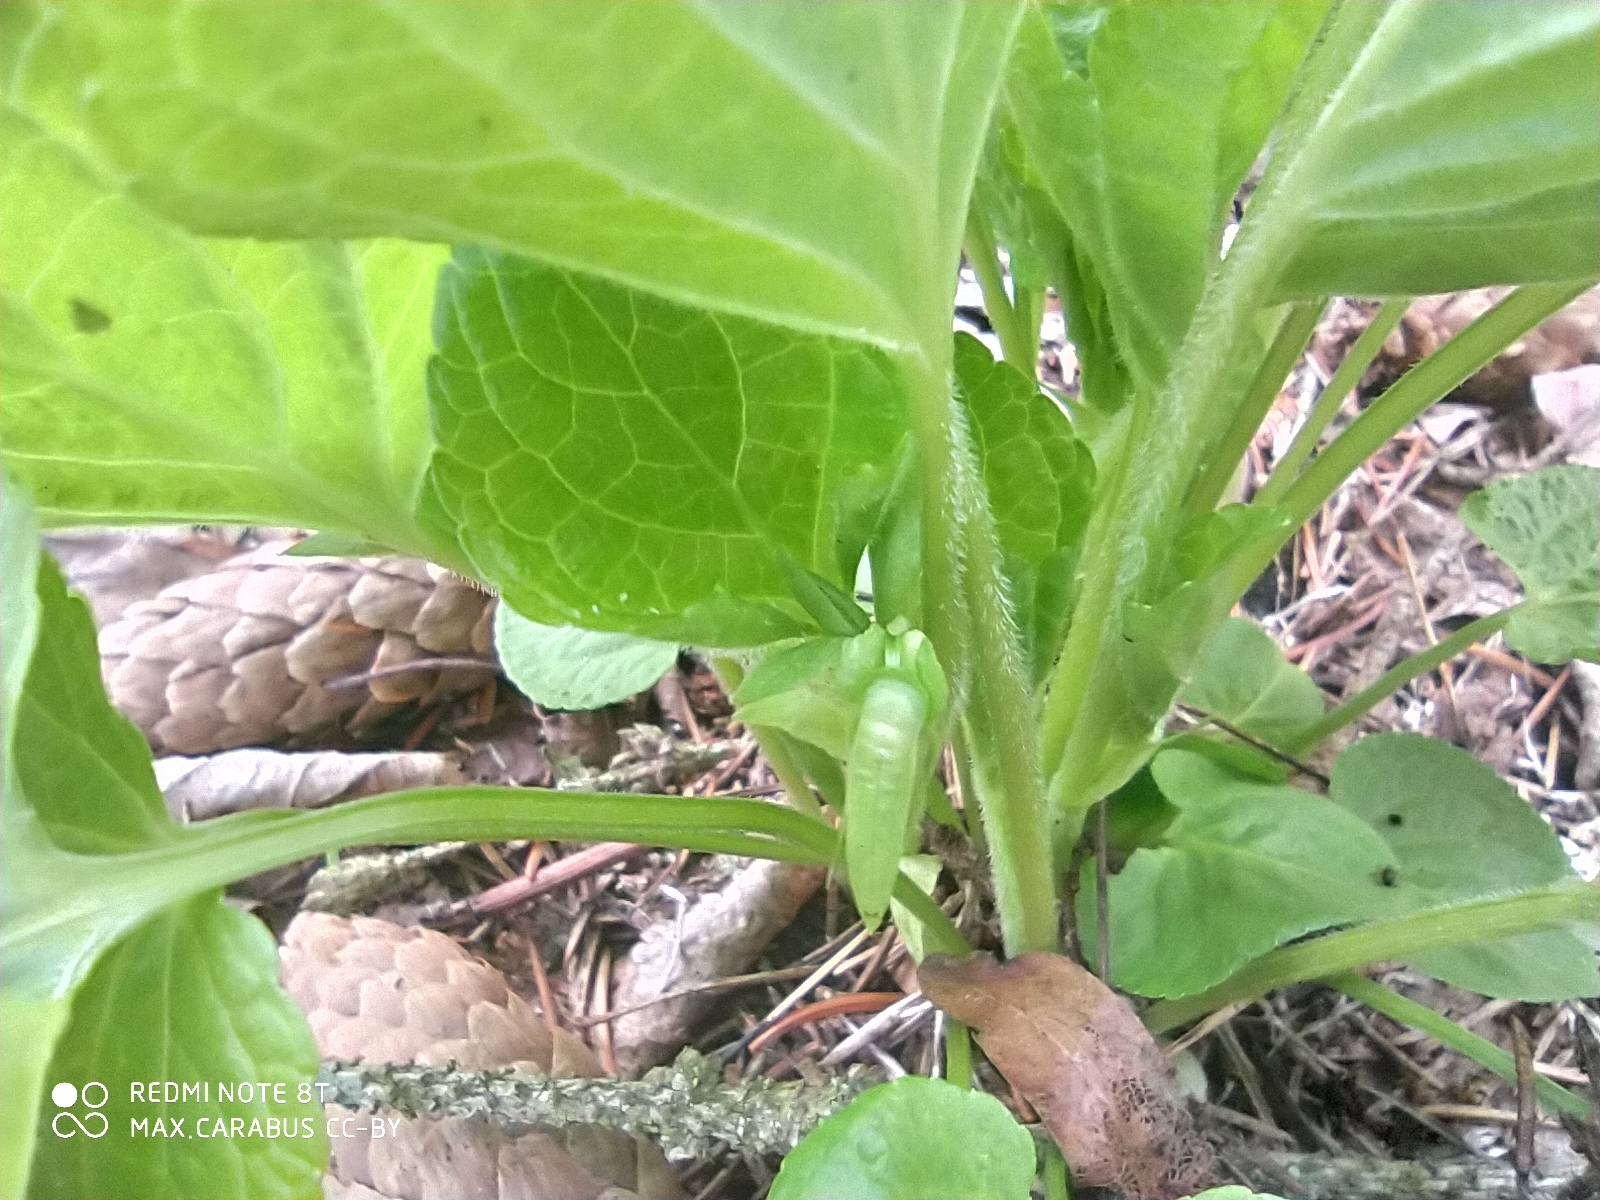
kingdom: Plantae
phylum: Tracheophyta
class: Magnoliopsida
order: Malpighiales
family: Violaceae
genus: Viola
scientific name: Viola mirabilis
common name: Wonder violet
